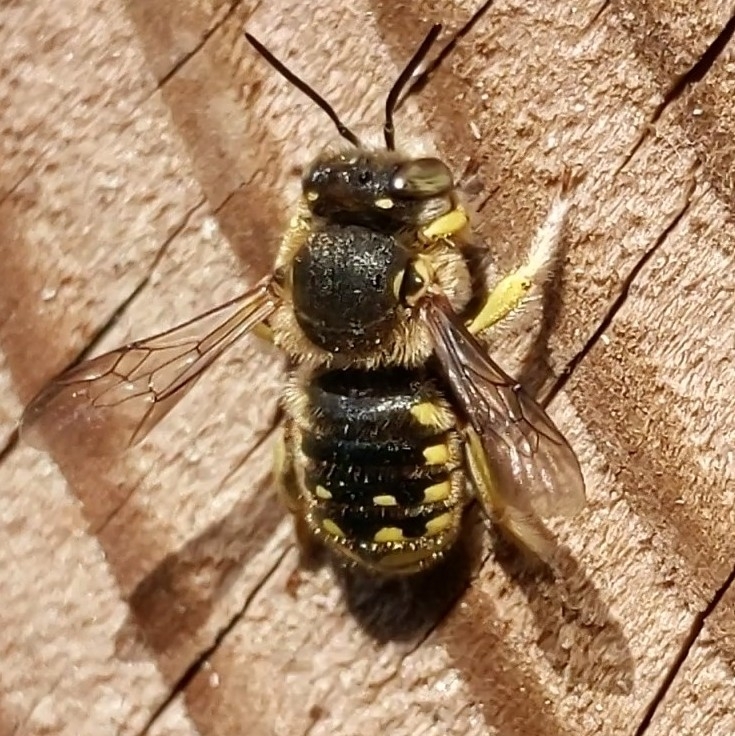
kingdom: Animalia
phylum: Arthropoda
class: Insecta
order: Hymenoptera
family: Megachilidae
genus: Anthidium
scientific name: Anthidium manicatum
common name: Wool carder bee
